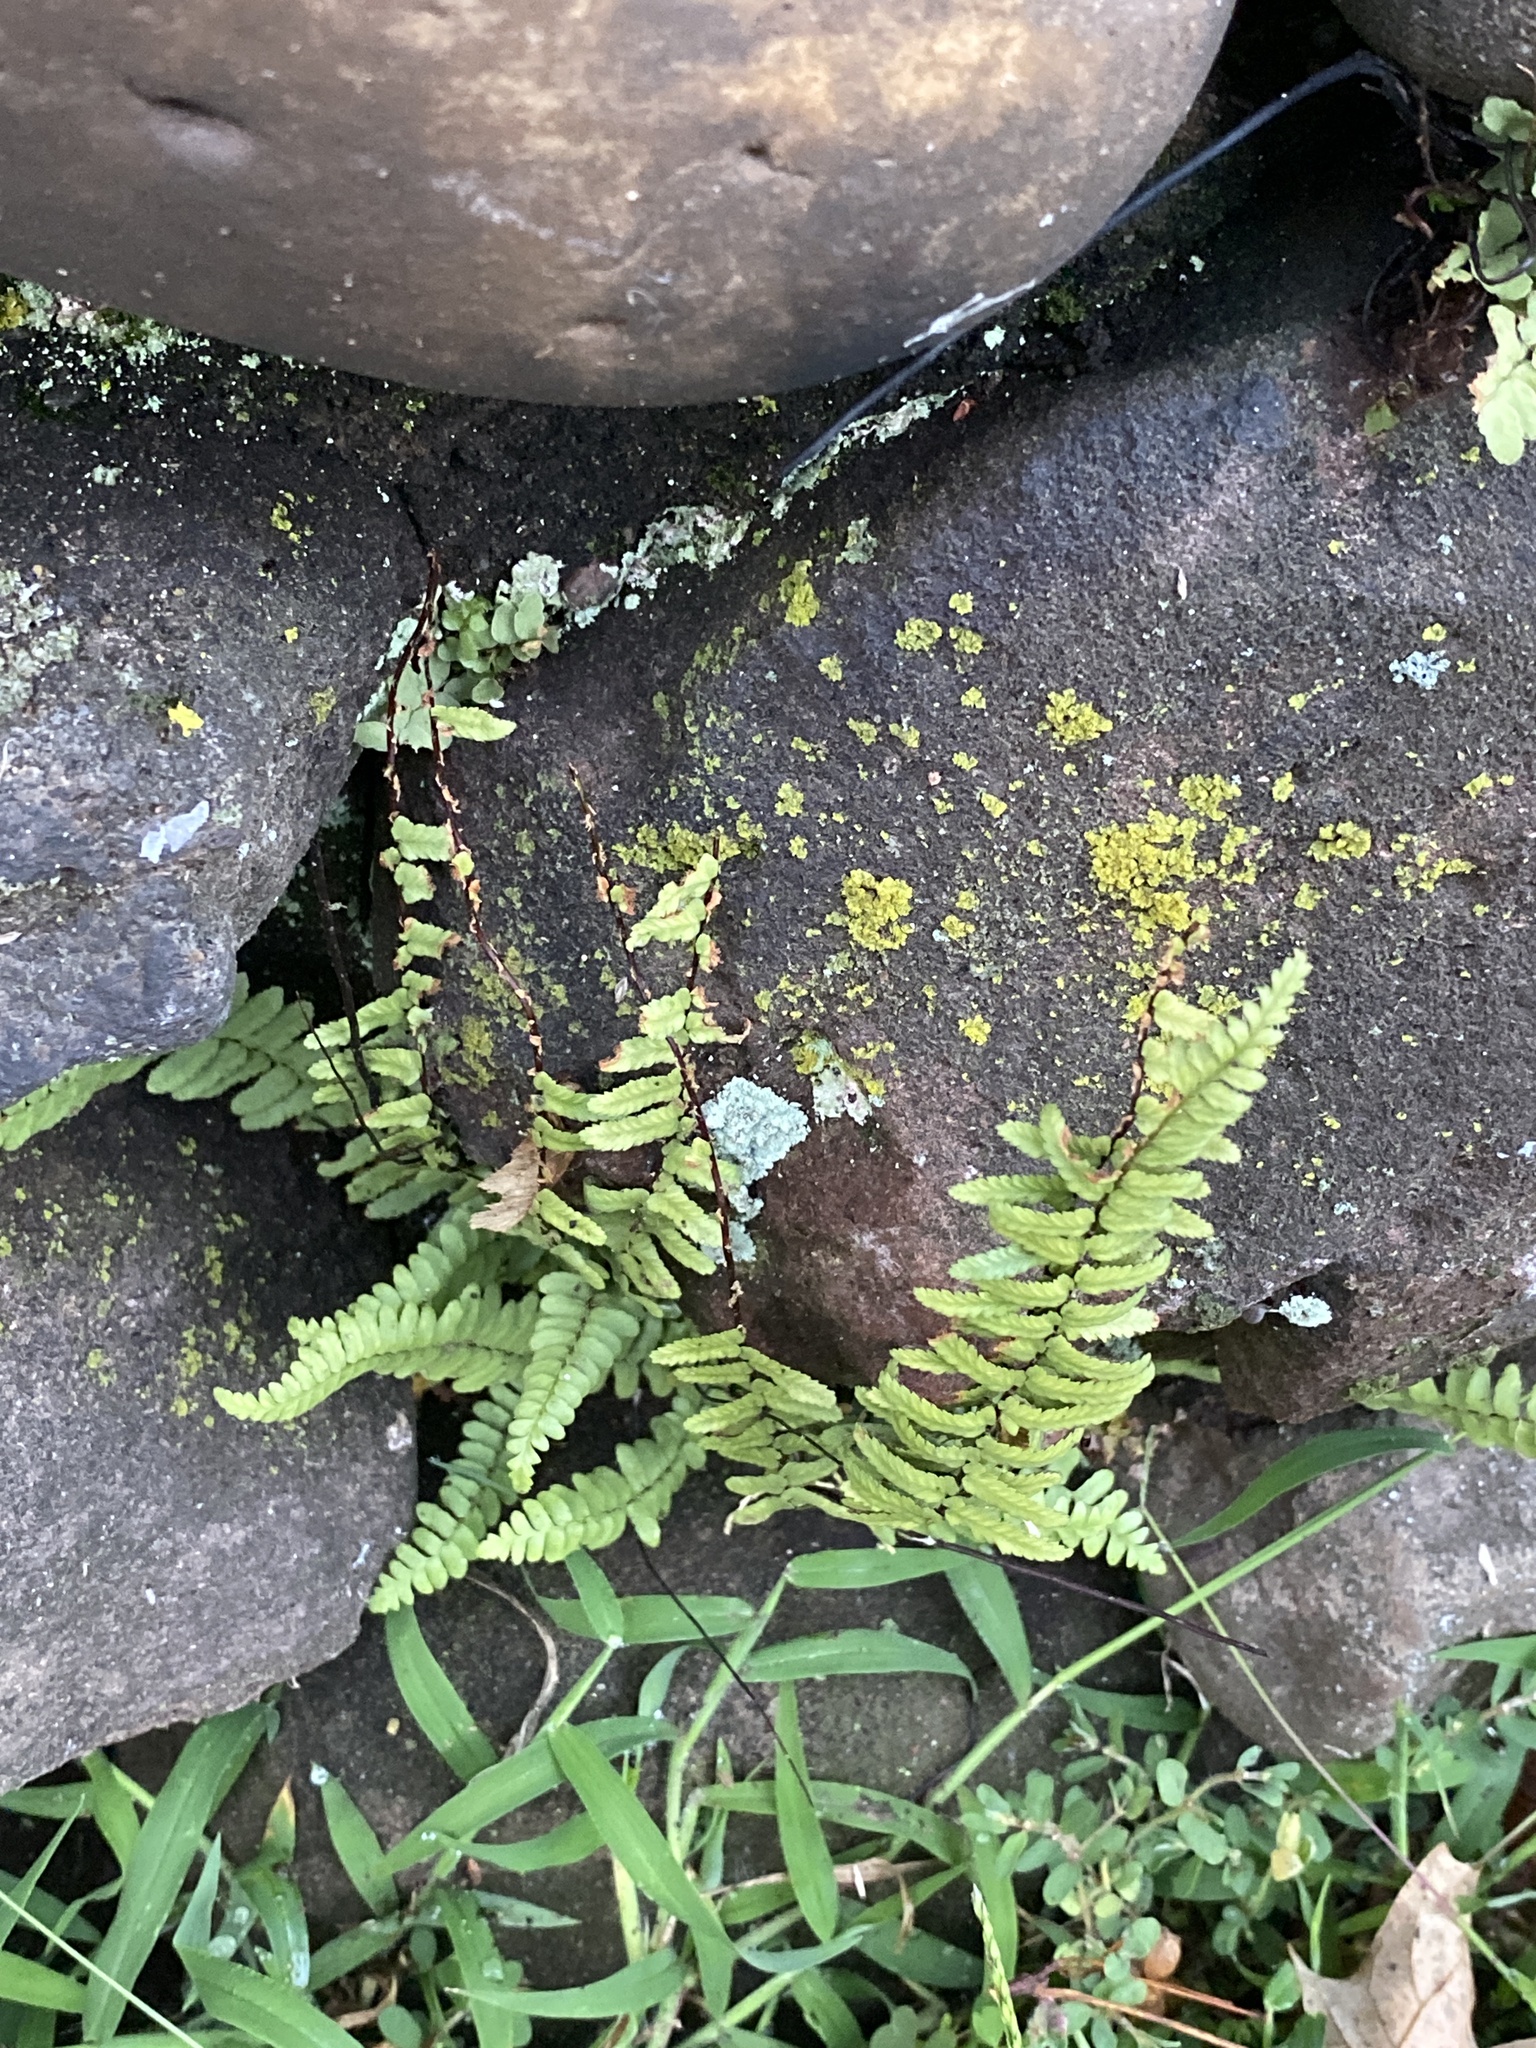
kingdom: Plantae
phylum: Tracheophyta
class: Polypodiopsida
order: Polypodiales
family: Aspleniaceae
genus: Asplenium
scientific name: Asplenium platyneuron
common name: Ebony spleenwort
